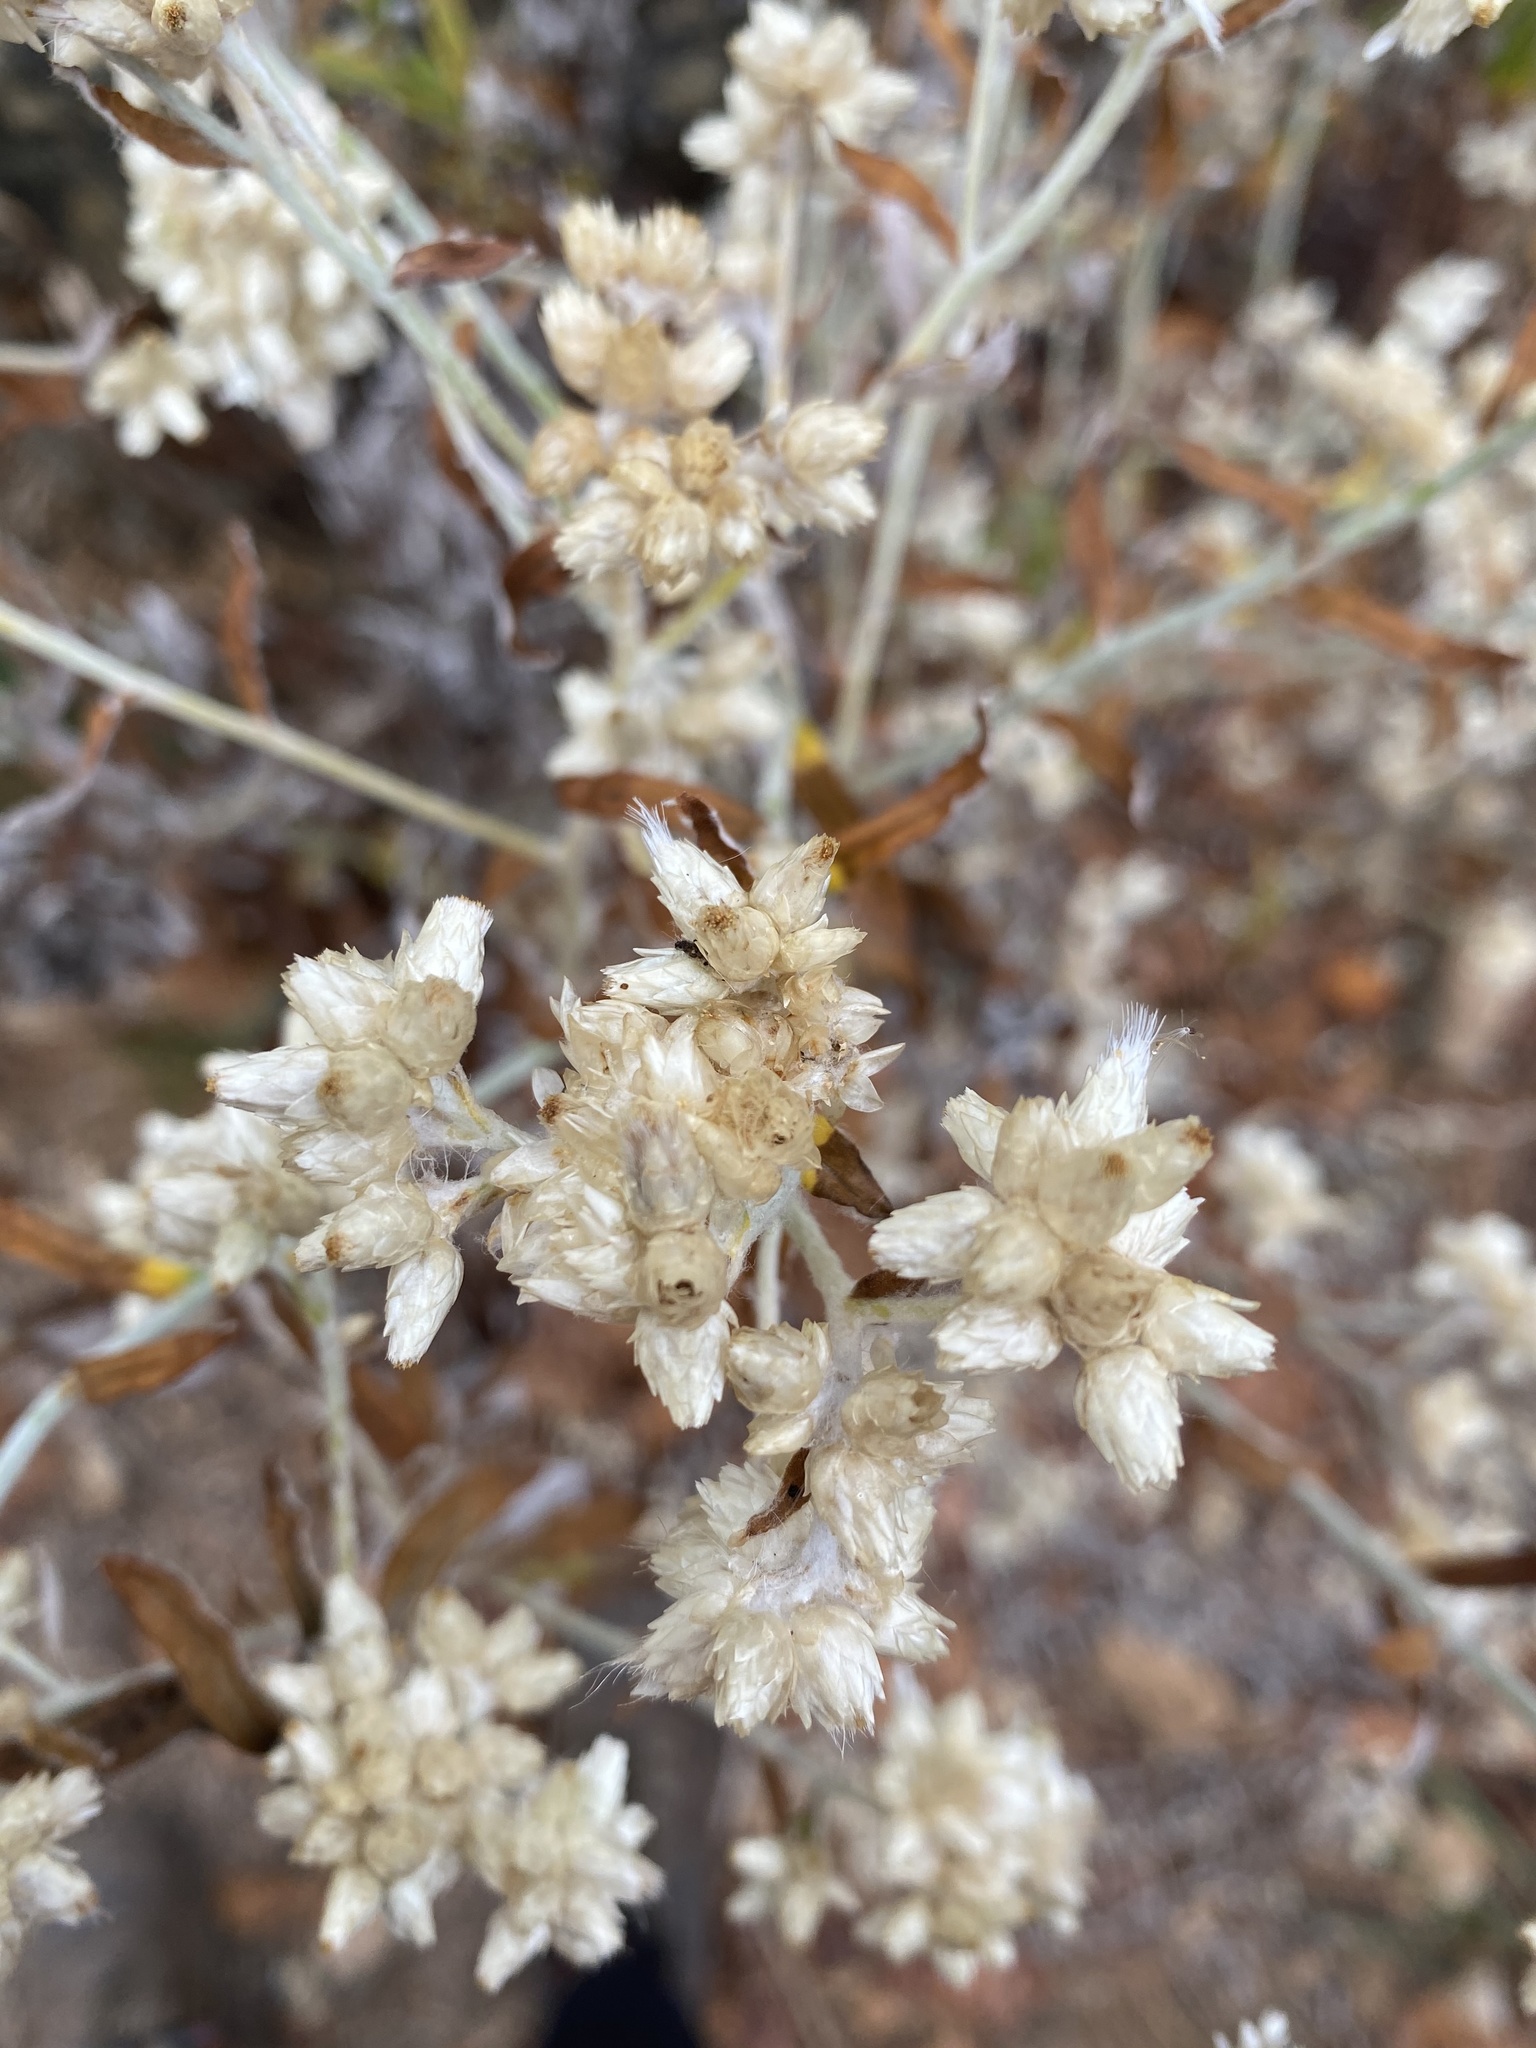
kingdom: Plantae
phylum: Tracheophyta
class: Magnoliopsida
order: Asterales
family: Asteraceae
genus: Pseudognaphalium
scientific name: Pseudognaphalium obtusifolium
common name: Eastern rabbit-tobacco
